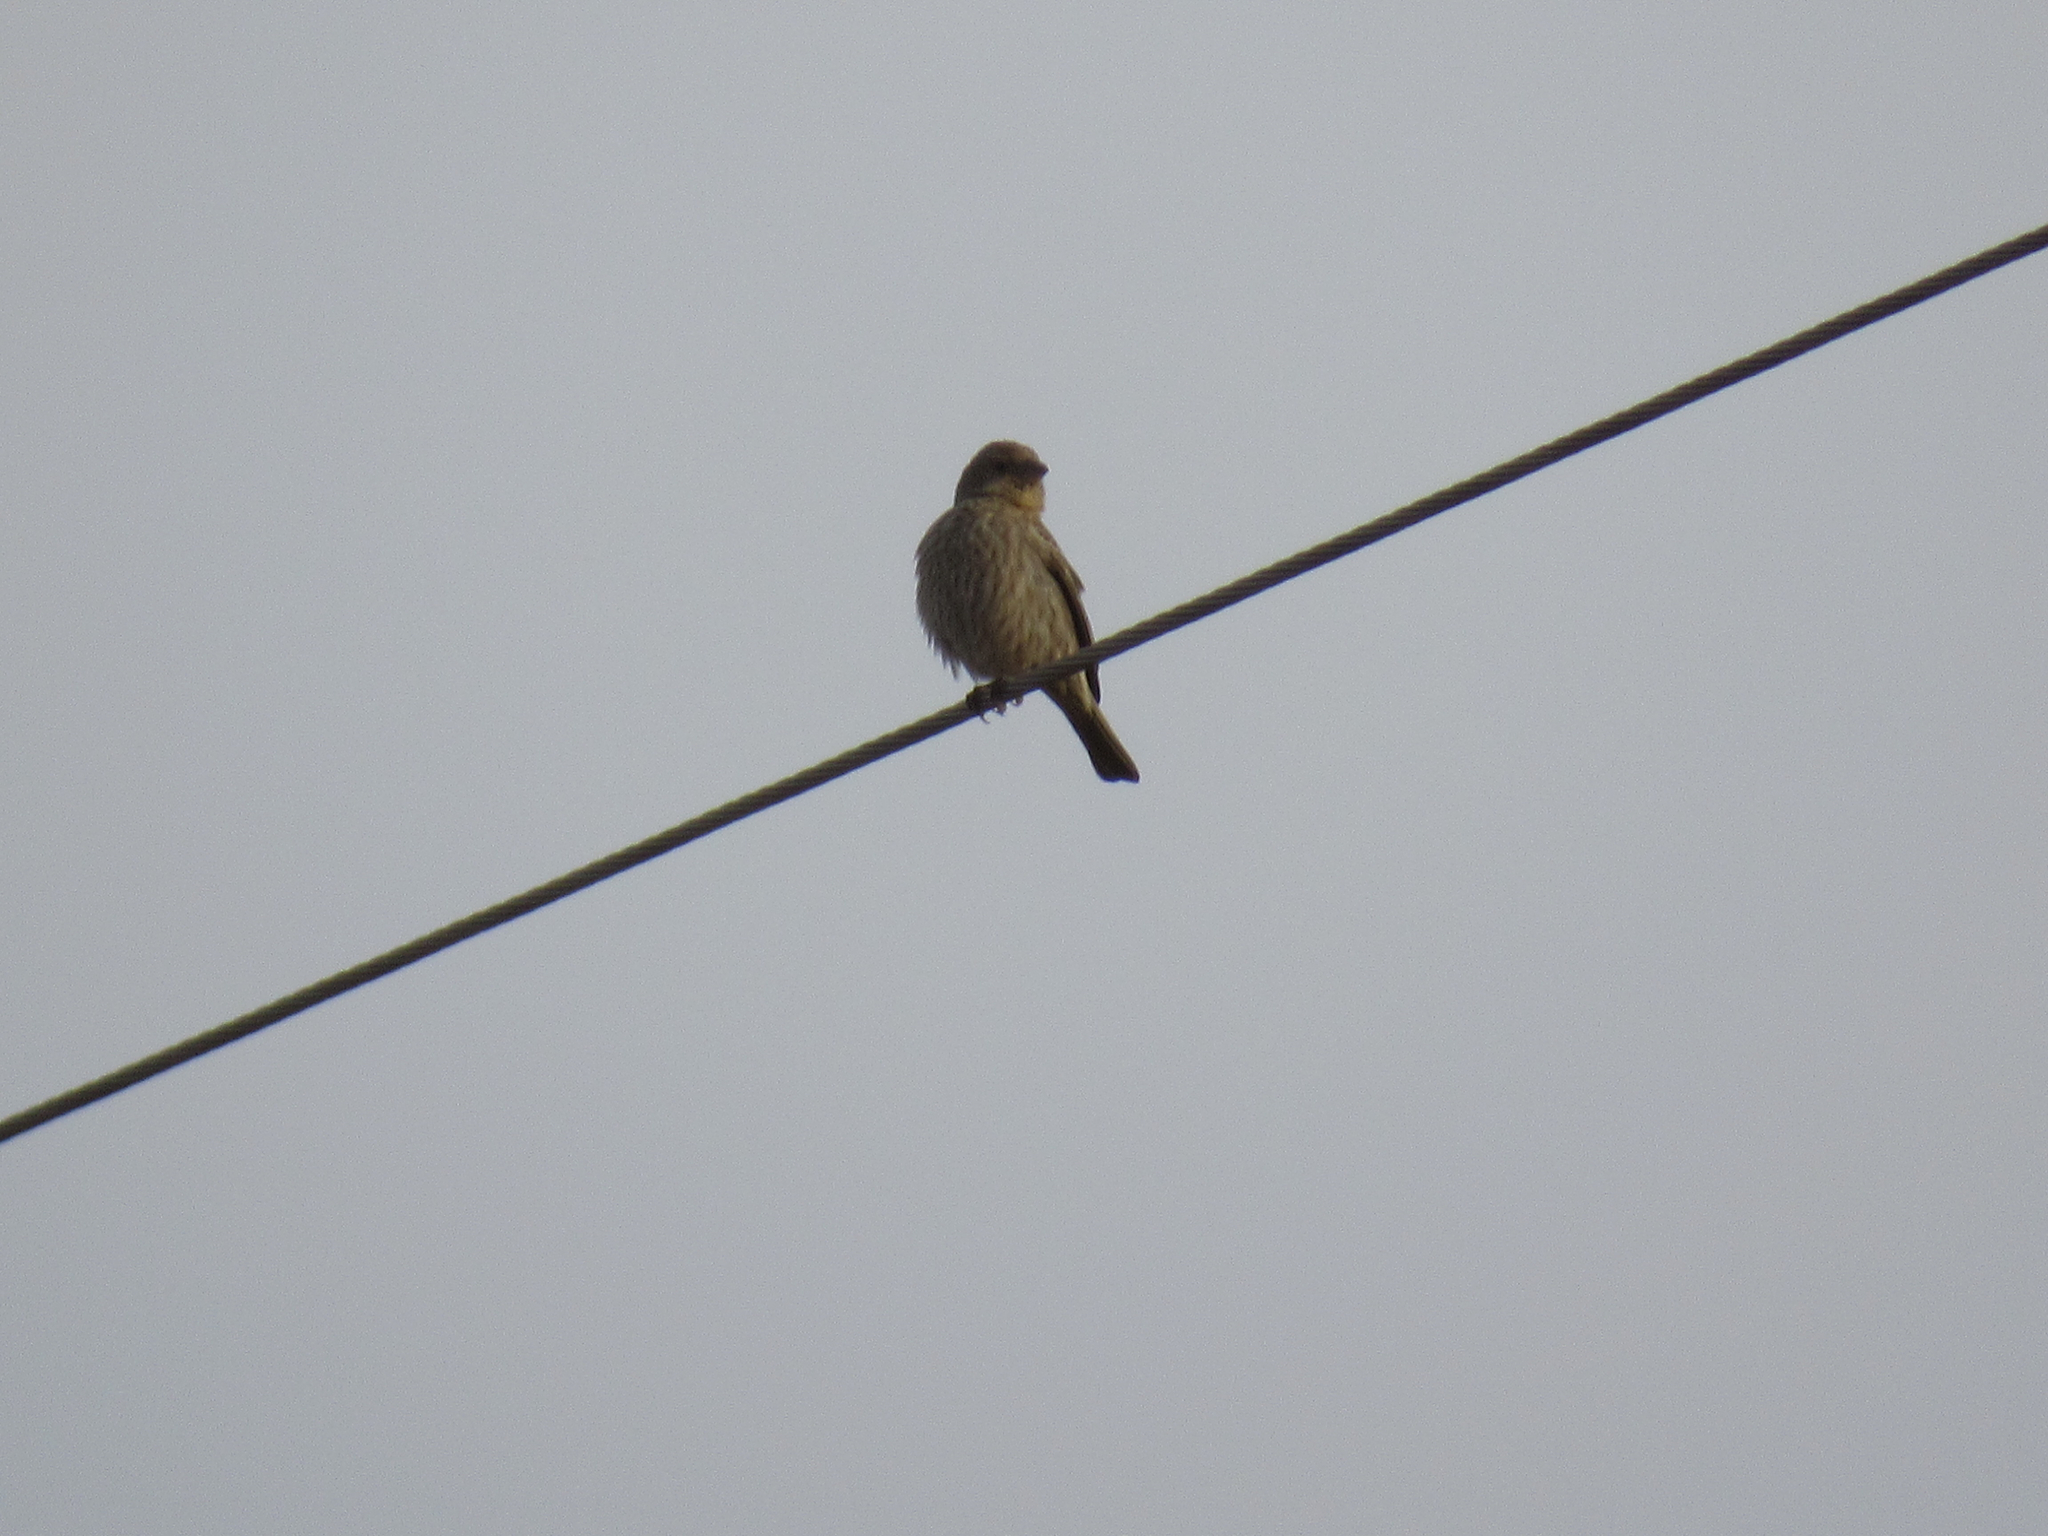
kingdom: Animalia
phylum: Chordata
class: Aves
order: Passeriformes
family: Fringillidae
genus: Haemorhous
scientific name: Haemorhous mexicanus
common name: House finch
